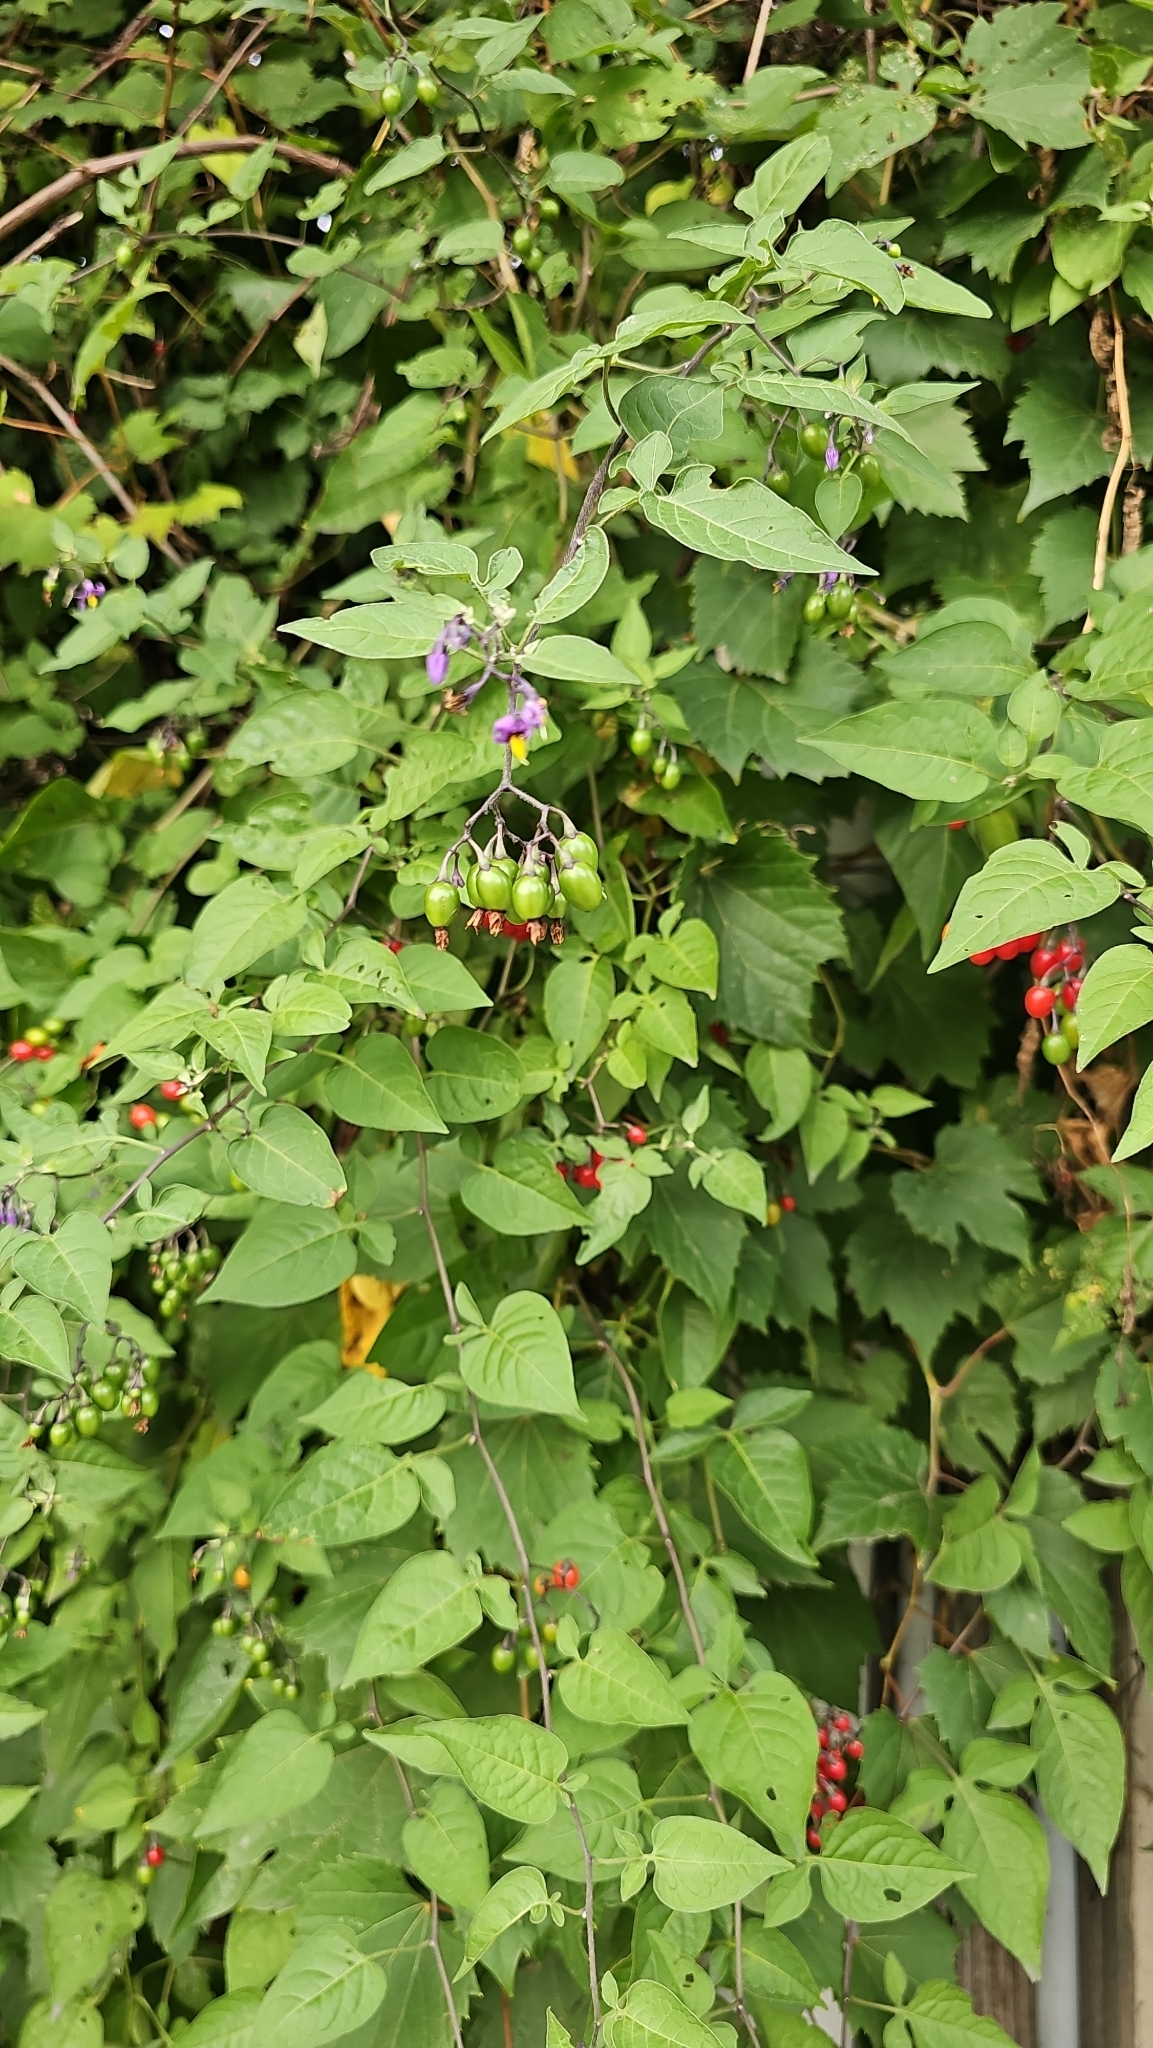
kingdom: Plantae
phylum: Tracheophyta
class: Magnoliopsida
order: Solanales
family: Solanaceae
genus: Solanum
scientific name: Solanum dulcamara
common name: Climbing nightshade
